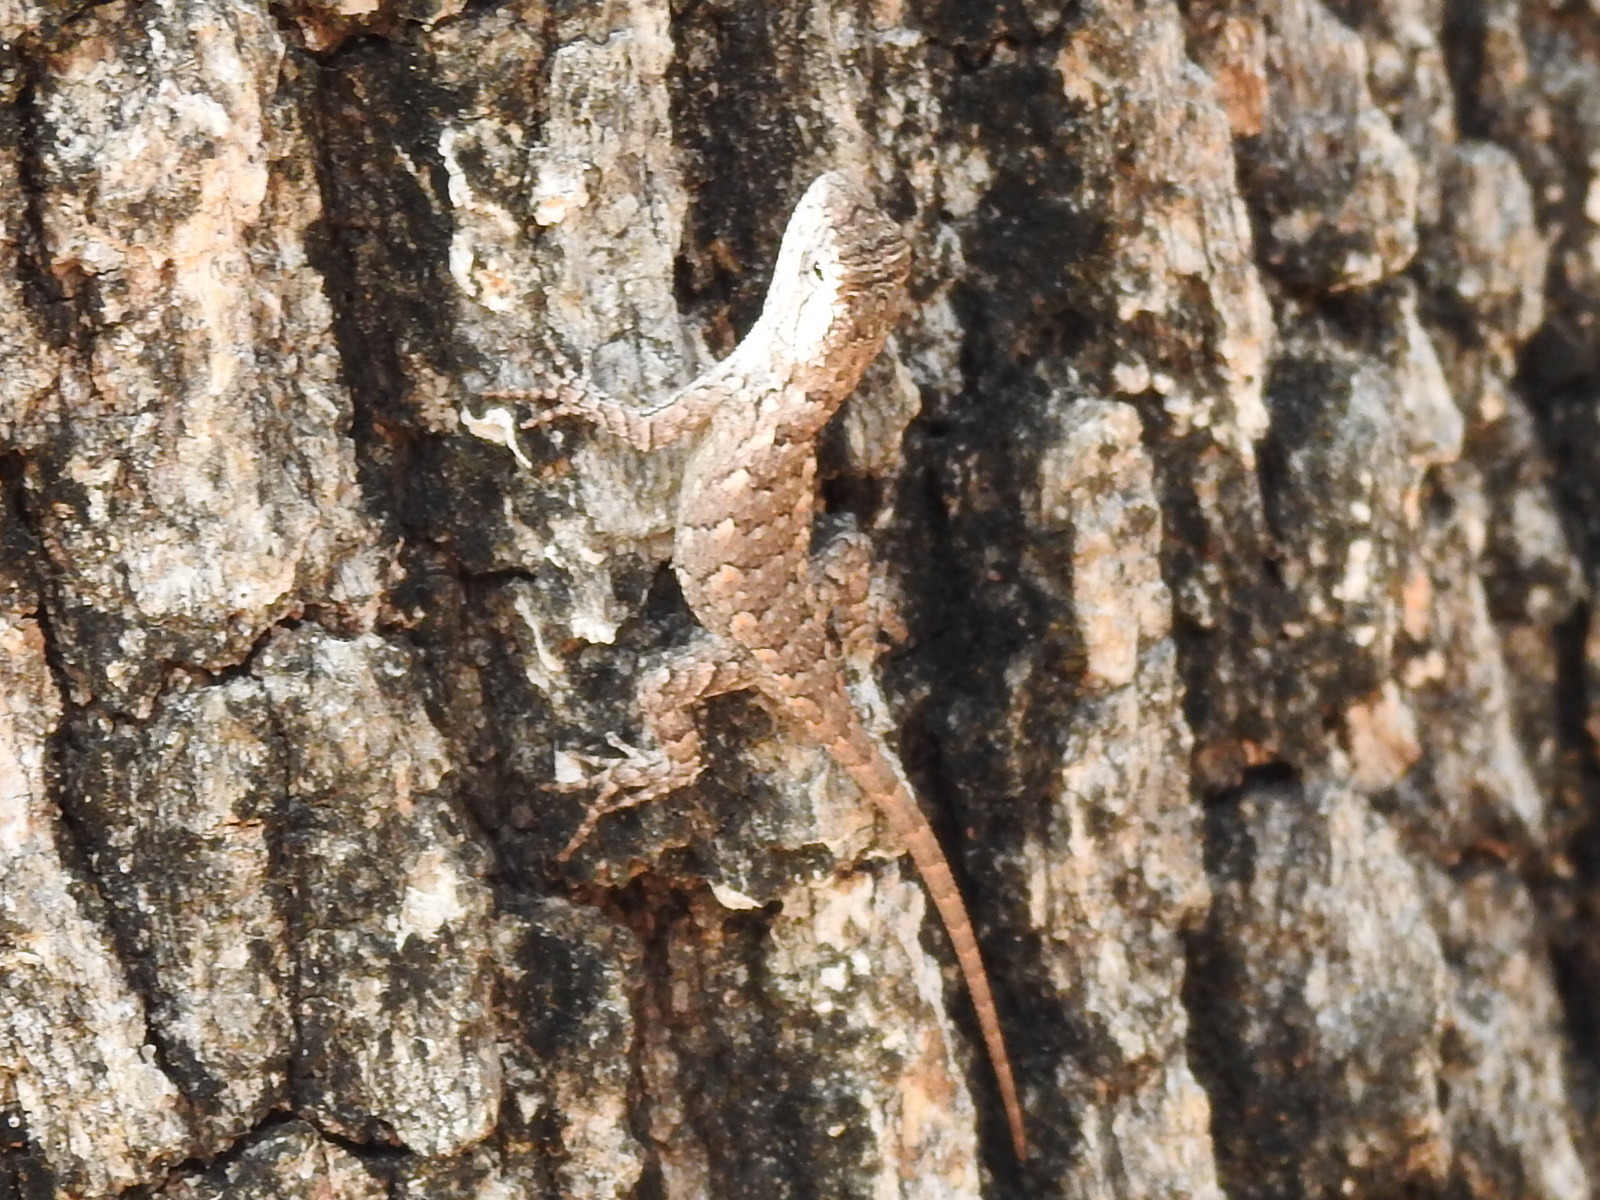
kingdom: Animalia
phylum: Chordata
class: Squamata
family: Phrynosomatidae
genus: Sceloporus
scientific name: Sceloporus olivaceus
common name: Texas spiny lizard
